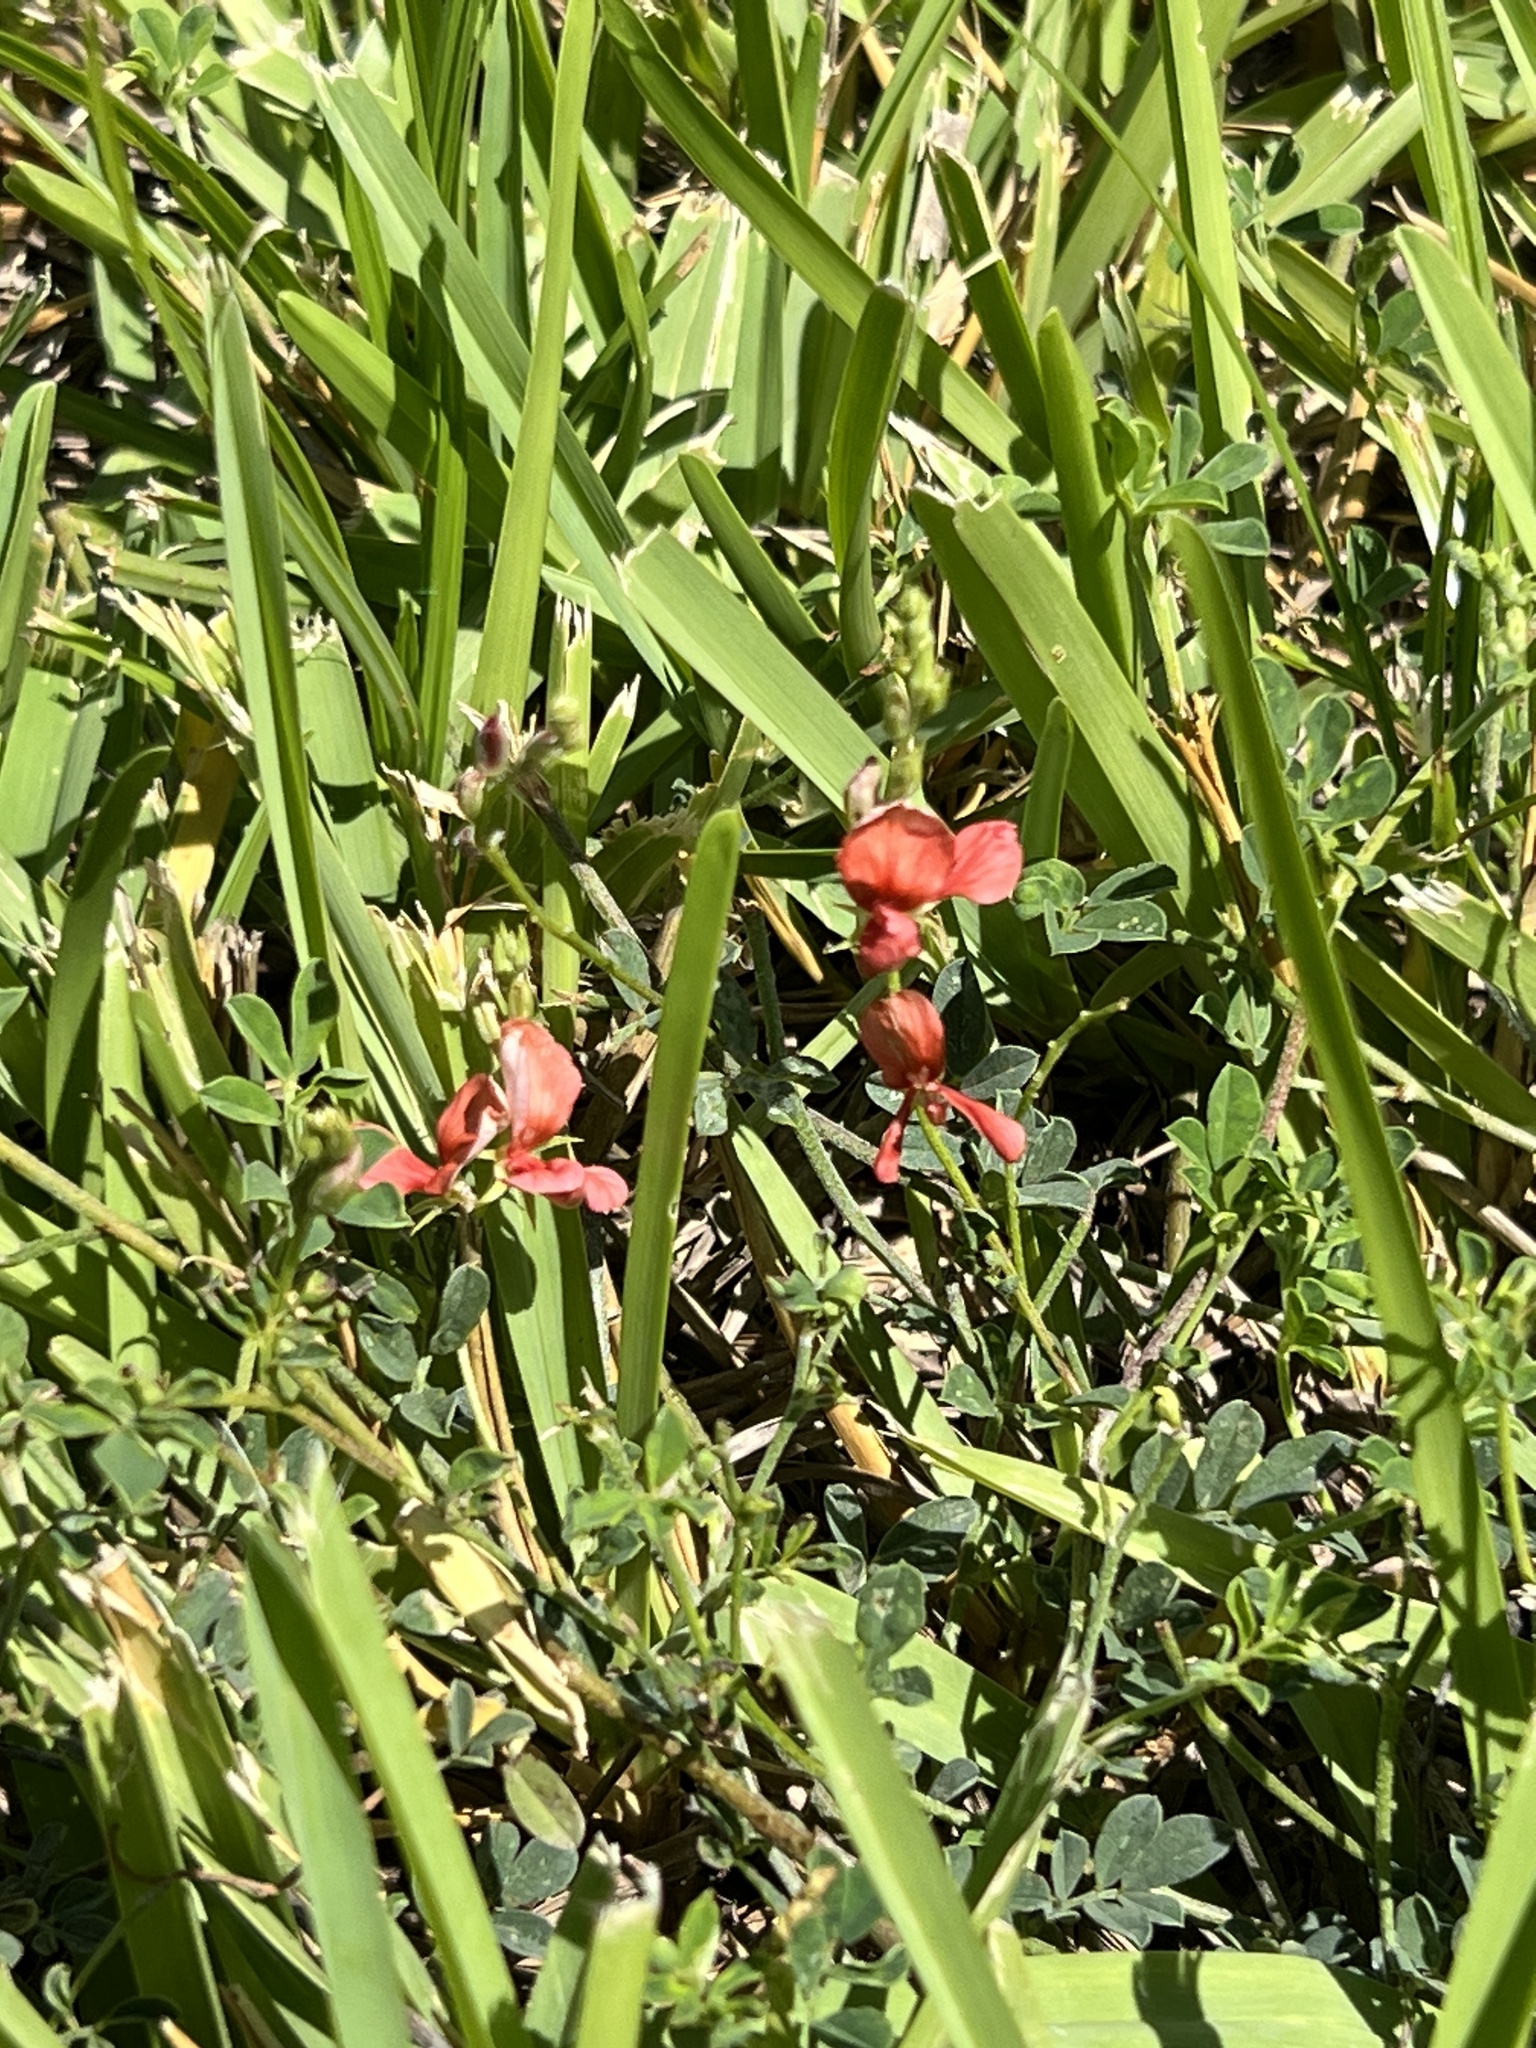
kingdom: Plantae
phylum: Tracheophyta
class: Magnoliopsida
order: Fabales
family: Fabaceae
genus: Indigofera
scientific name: Indigofera miniata
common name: Coast indigo
